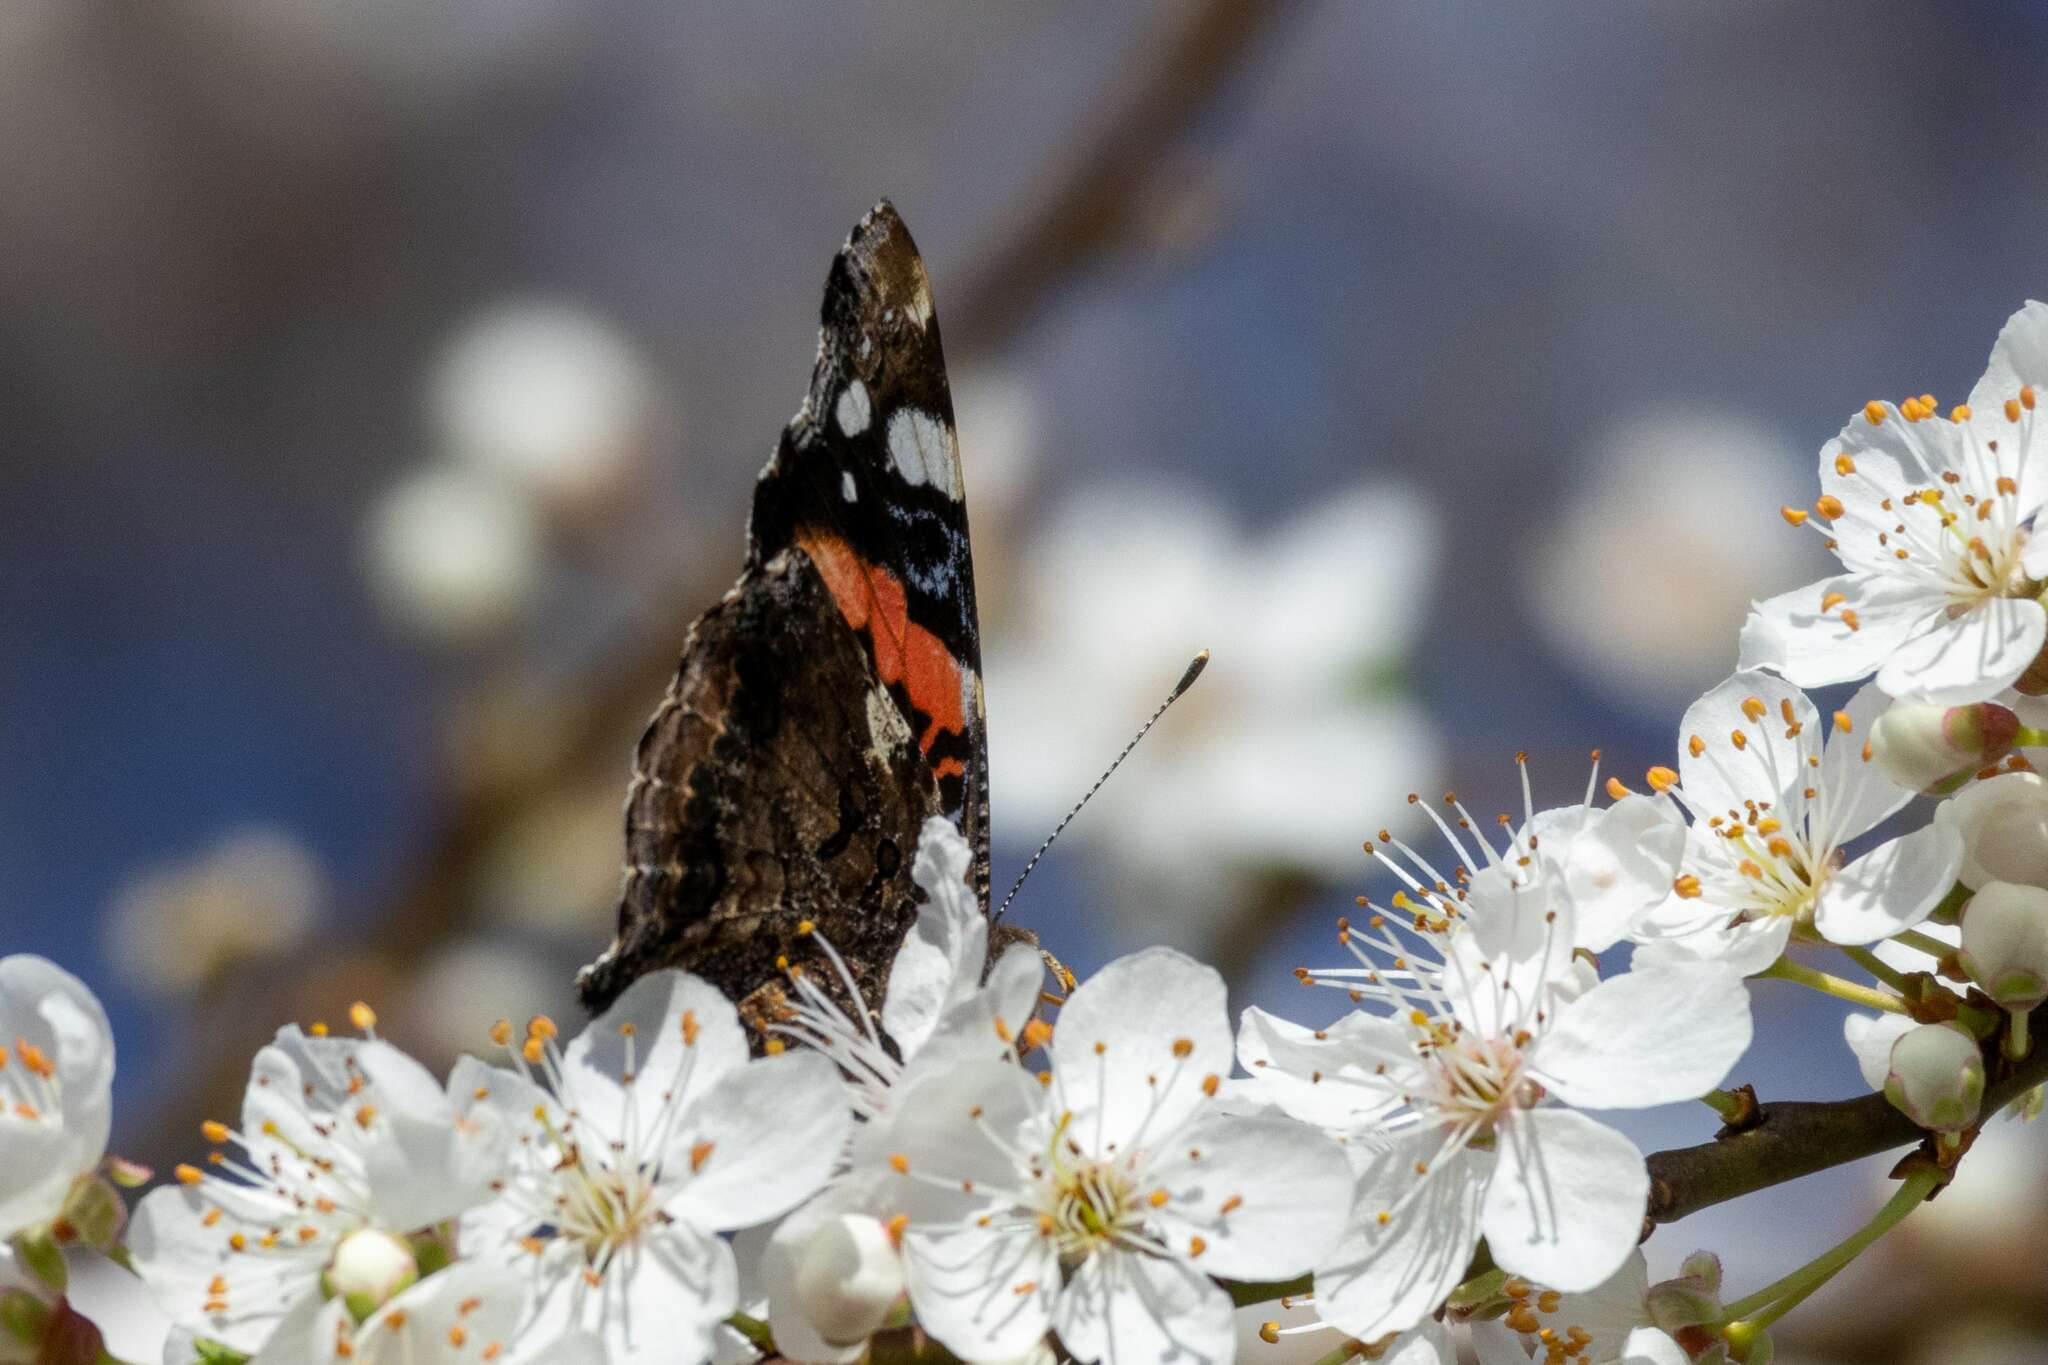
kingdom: Animalia
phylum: Arthropoda
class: Insecta
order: Lepidoptera
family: Nymphalidae
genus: Vanessa
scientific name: Vanessa atalanta
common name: Red admiral
